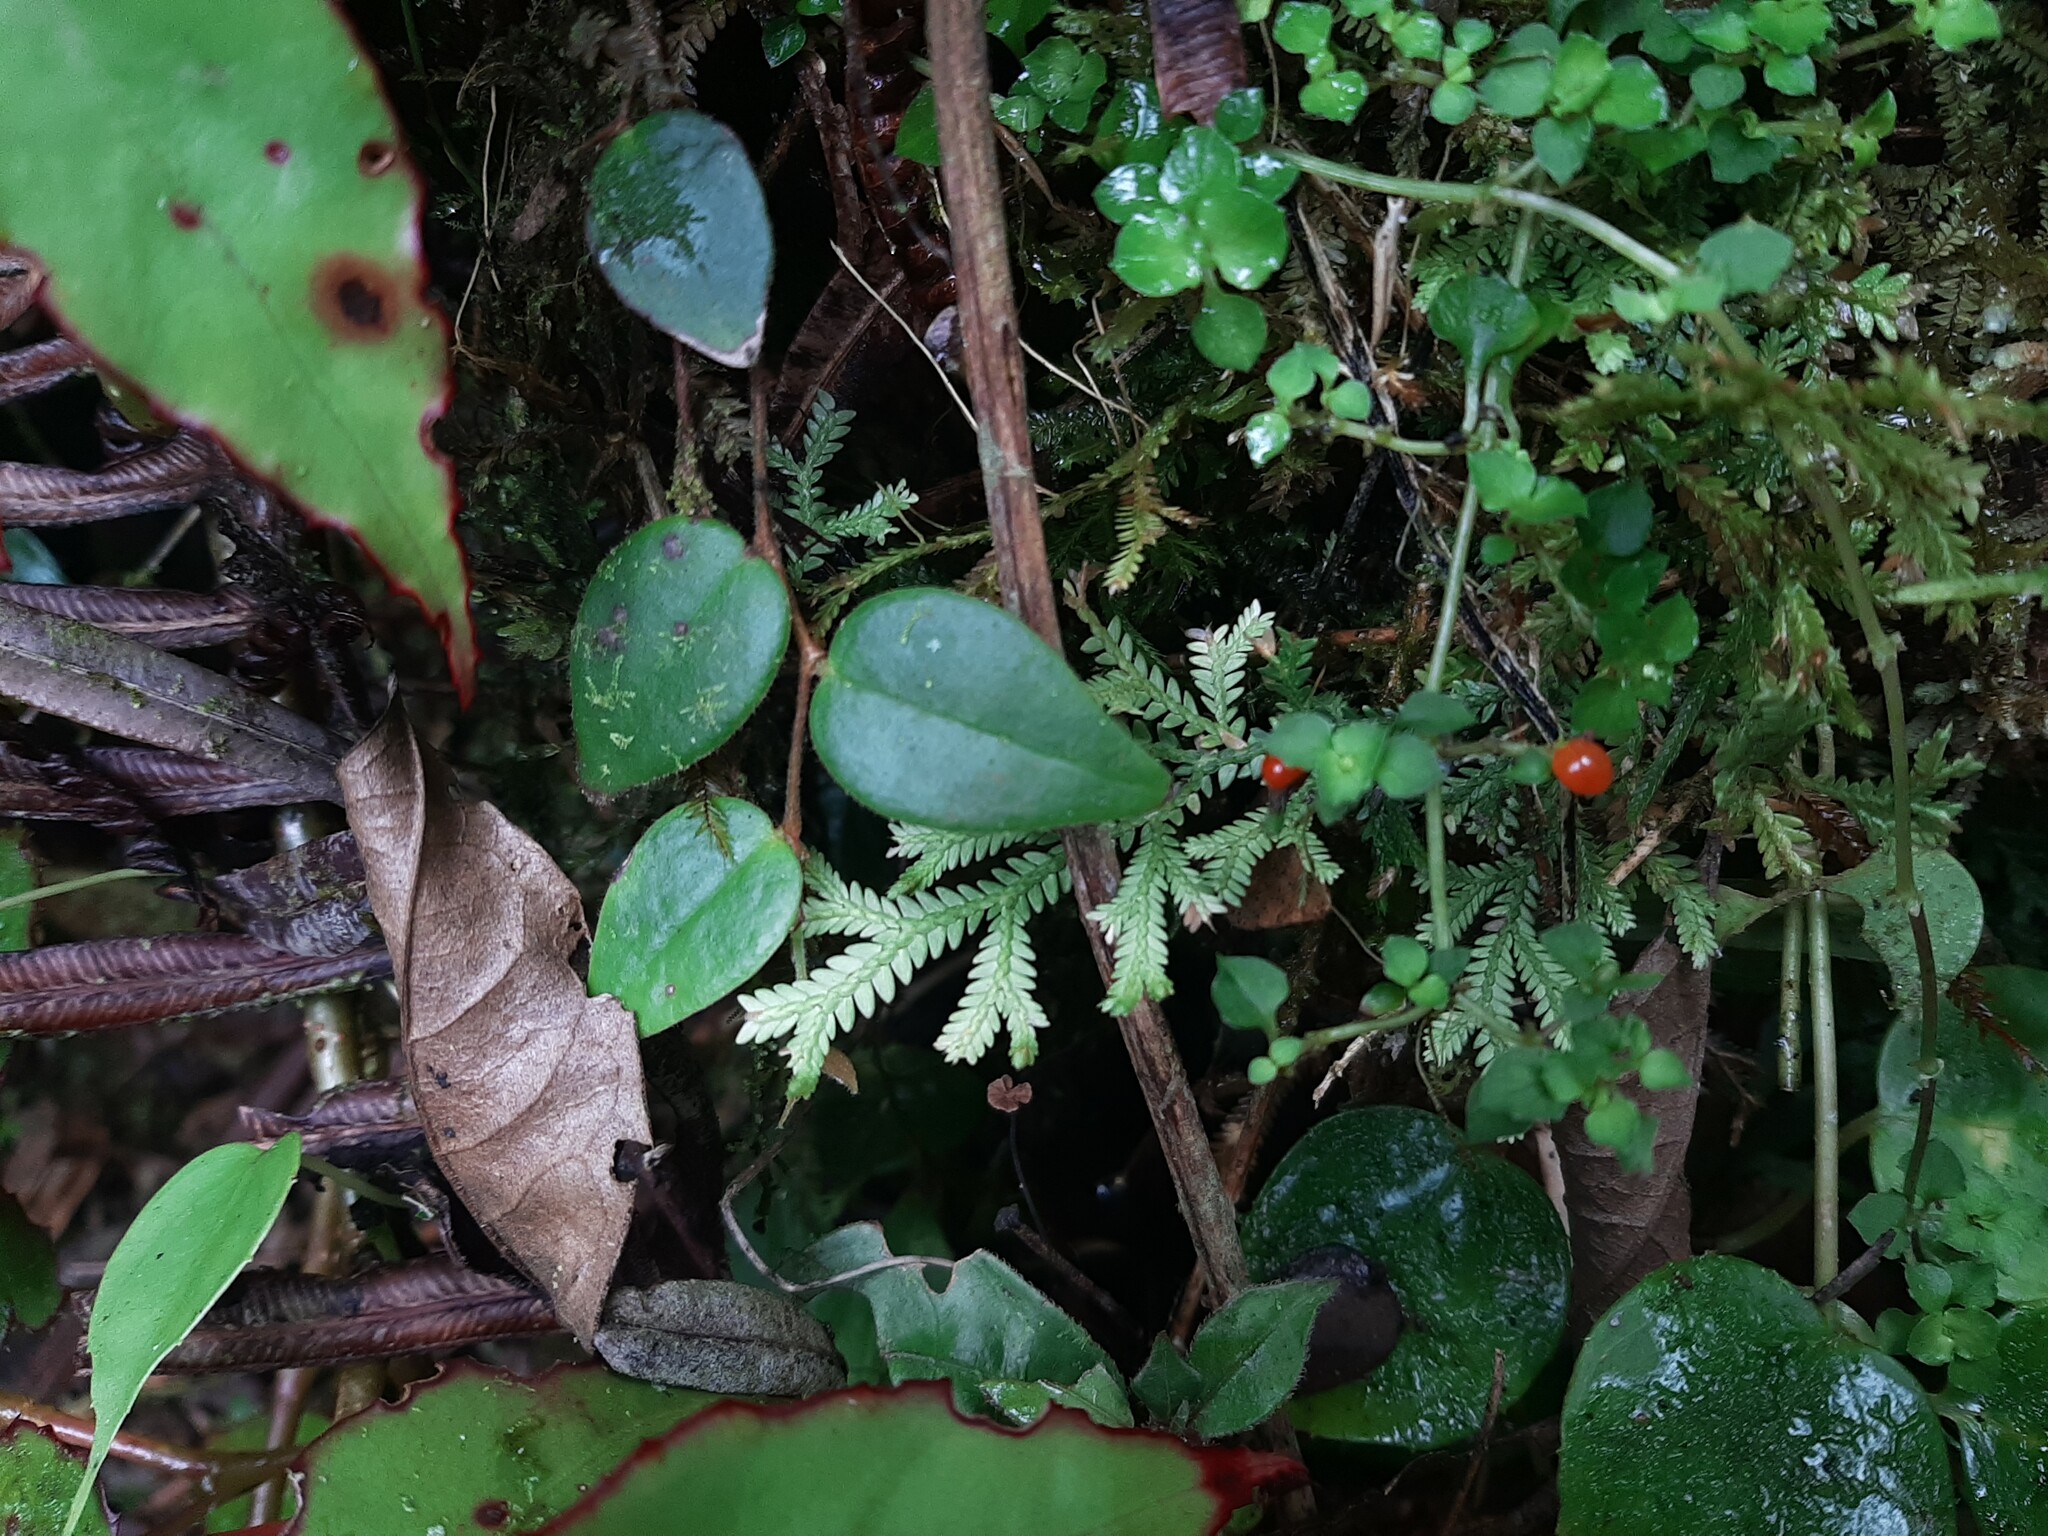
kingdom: Plantae
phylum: Tracheophyta
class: Magnoliopsida
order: Gentianales
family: Rubiaceae
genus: Nertera
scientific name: Nertera granadensis
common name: Beadplant
